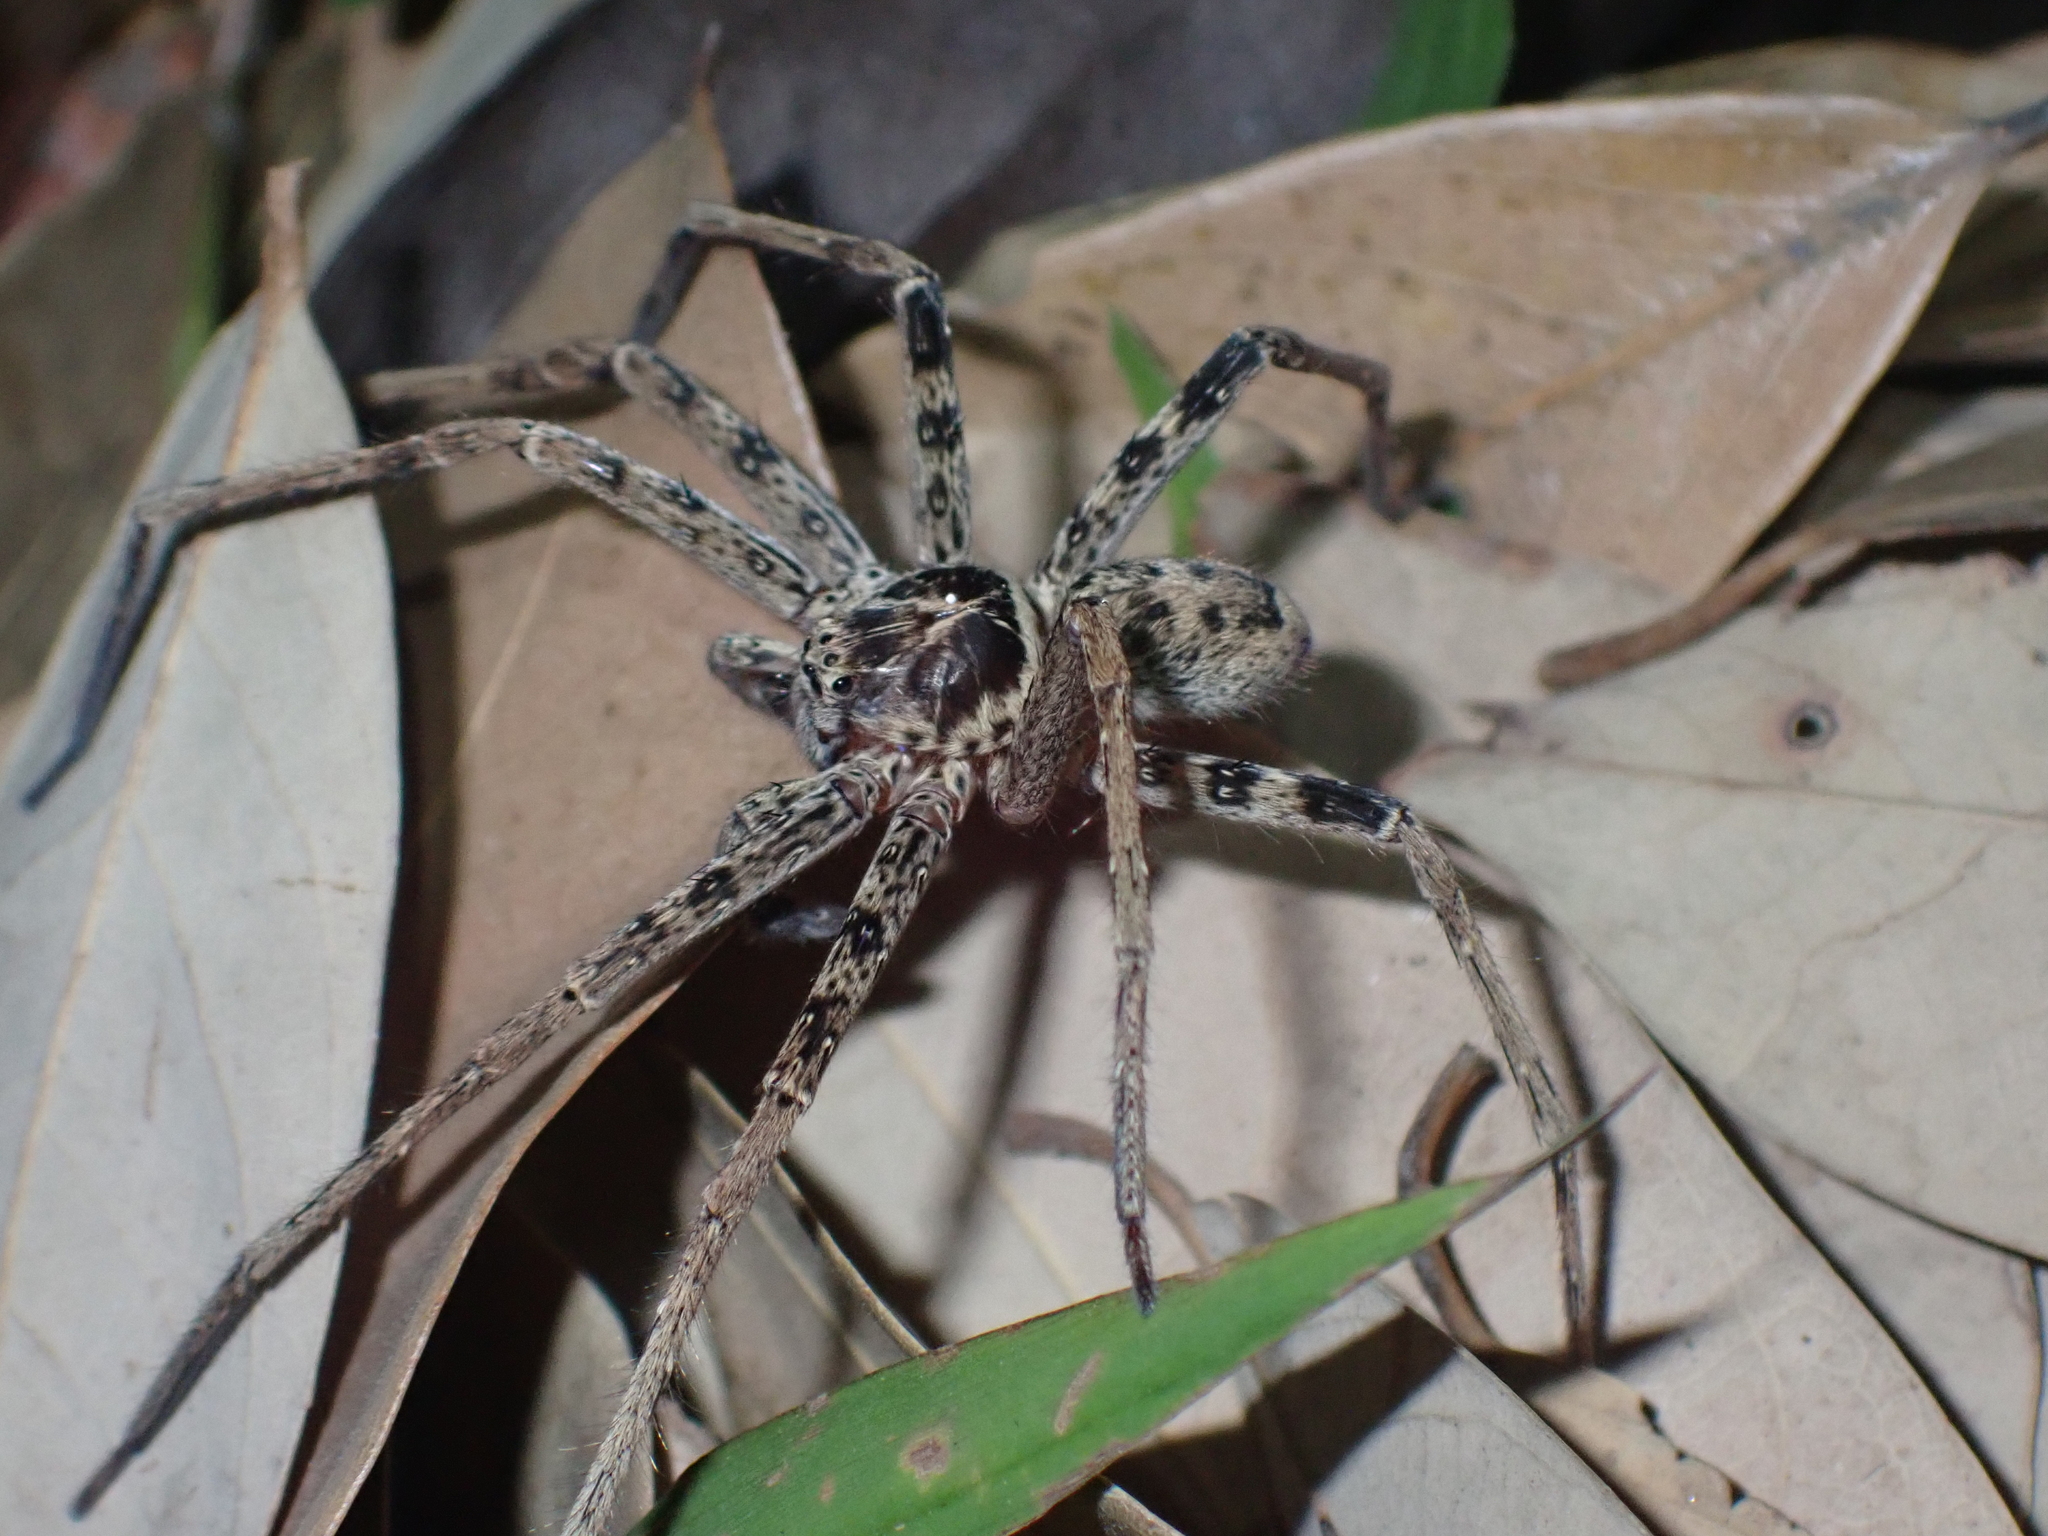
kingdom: Animalia
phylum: Arthropoda
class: Arachnida
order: Araneae
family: Sparassidae
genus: Heteropoda
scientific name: Heteropoda venatoria
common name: Huntsman spider
